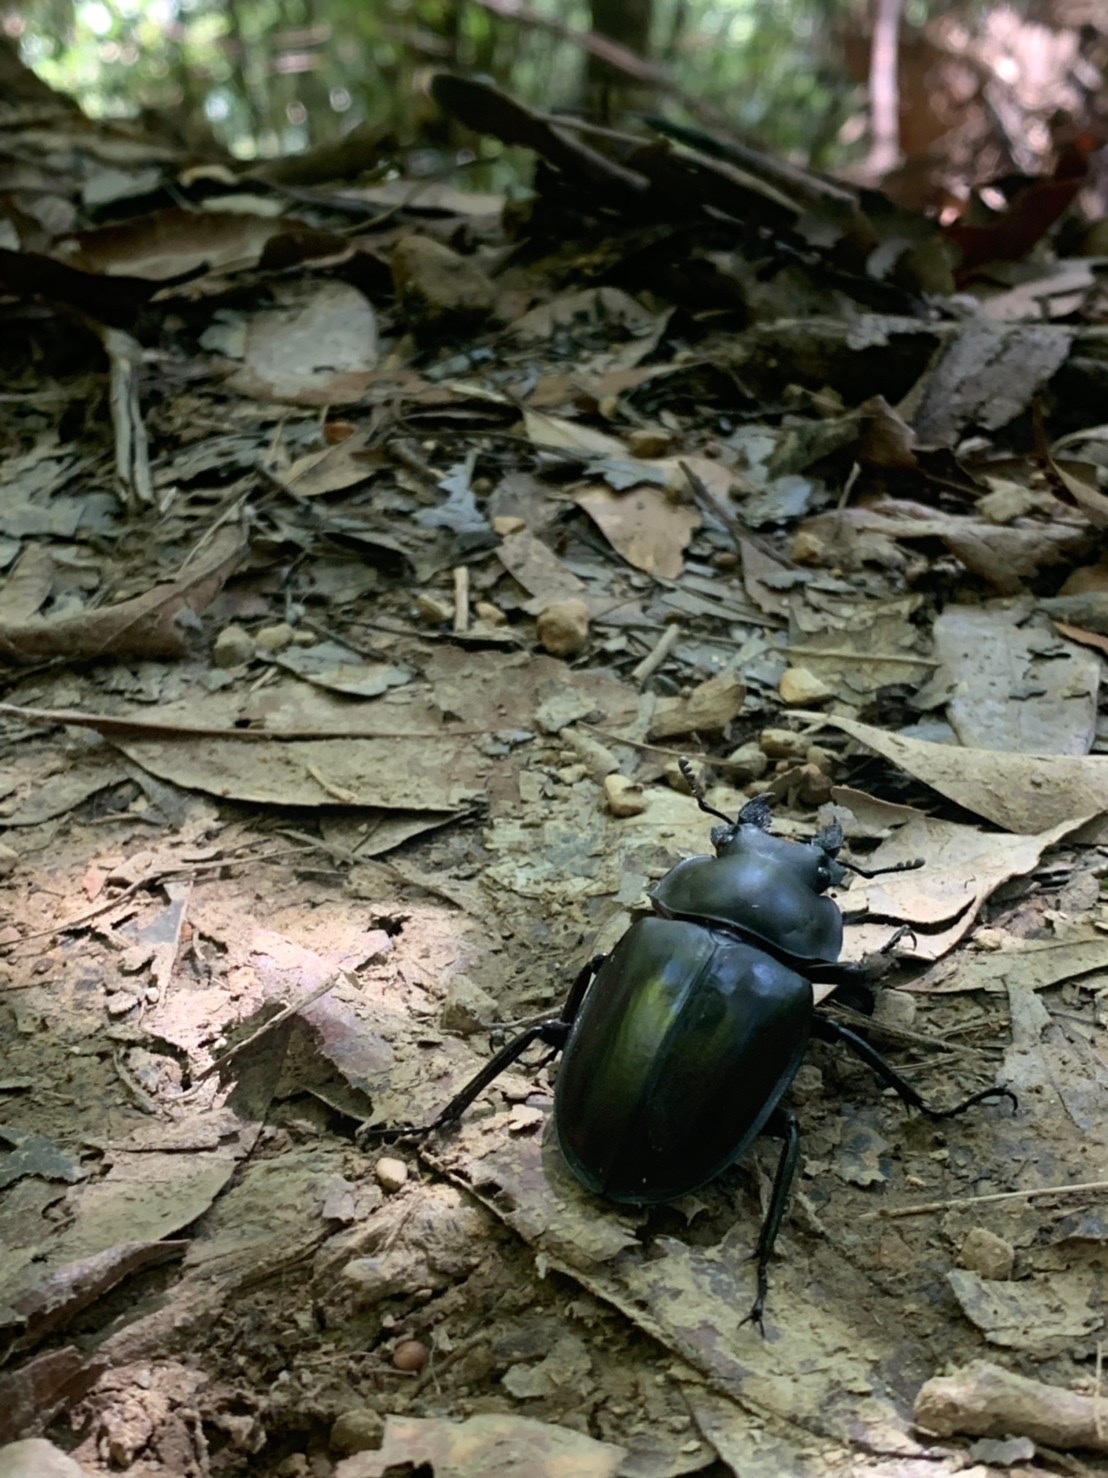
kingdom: Animalia
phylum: Arthropoda
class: Insecta
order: Coleoptera
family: Lucanidae
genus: Neolucanus
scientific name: Neolucanus maximus
